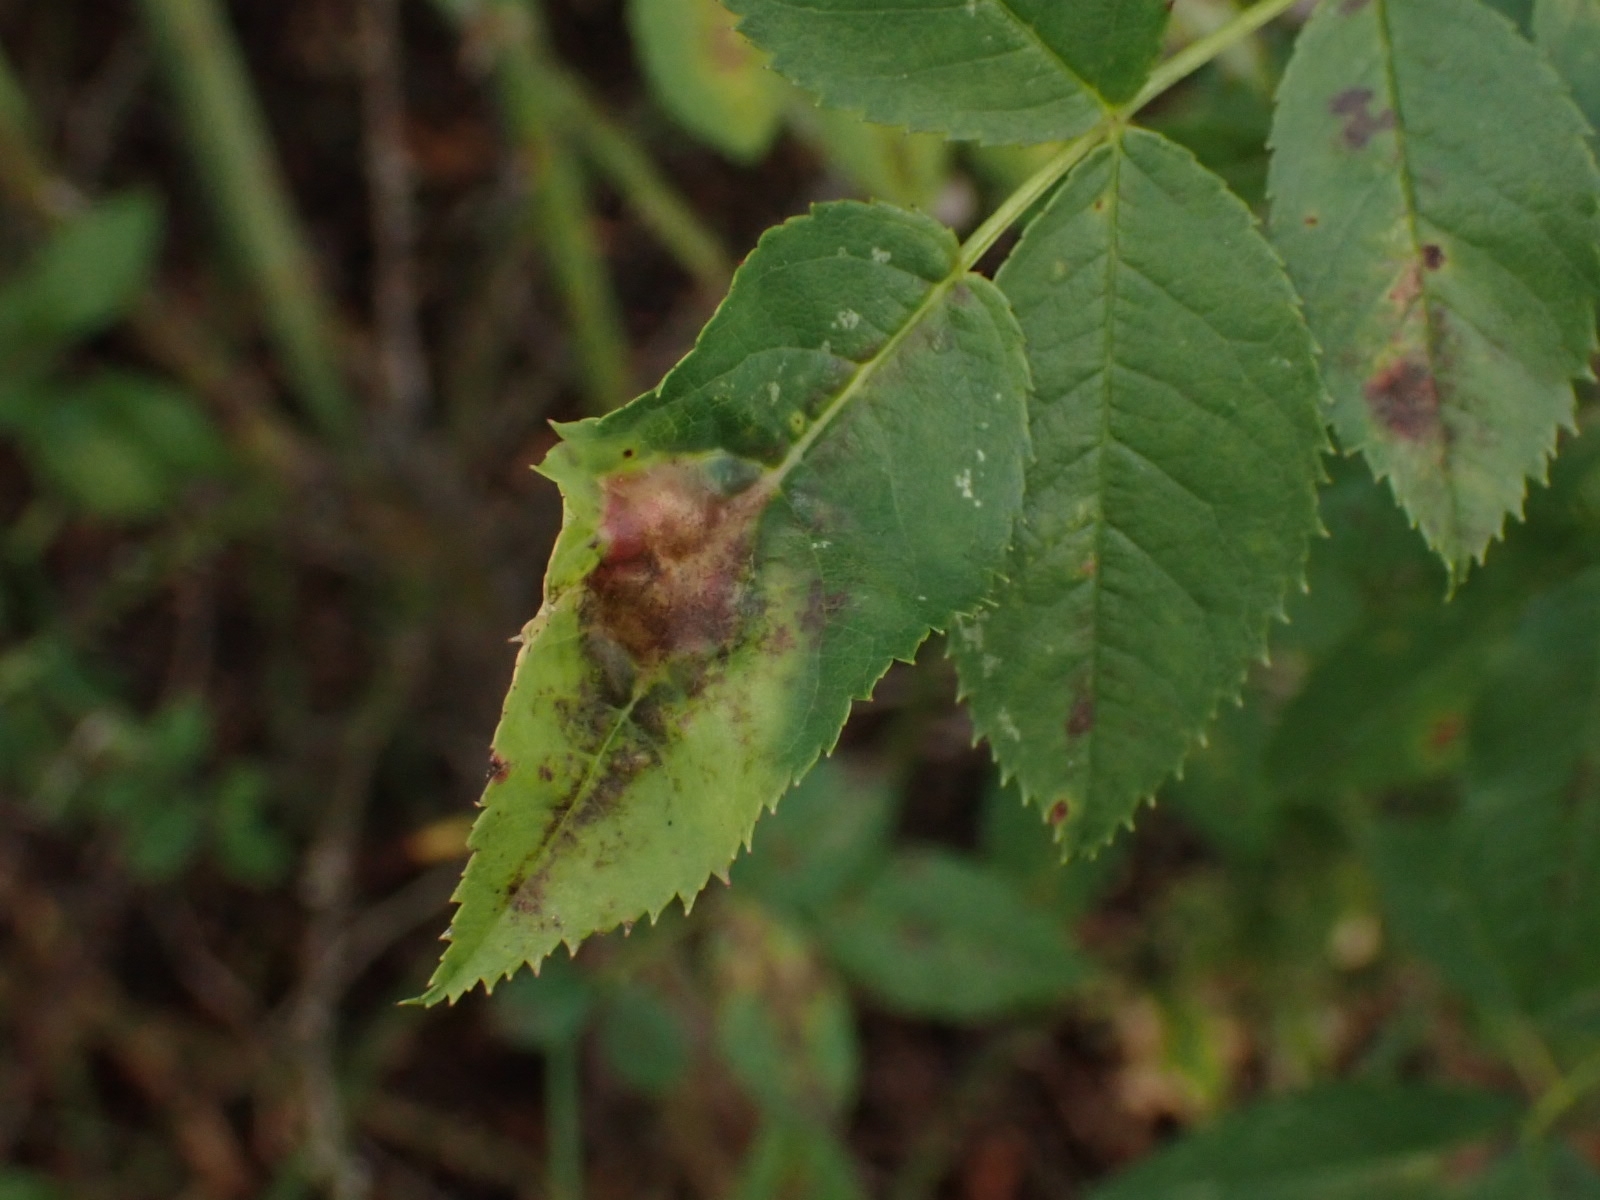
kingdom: Animalia
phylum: Arthropoda
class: Insecta
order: Hymenoptera
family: Cynipidae
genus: Diplolepis
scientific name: Diplolepis spinosissimae
